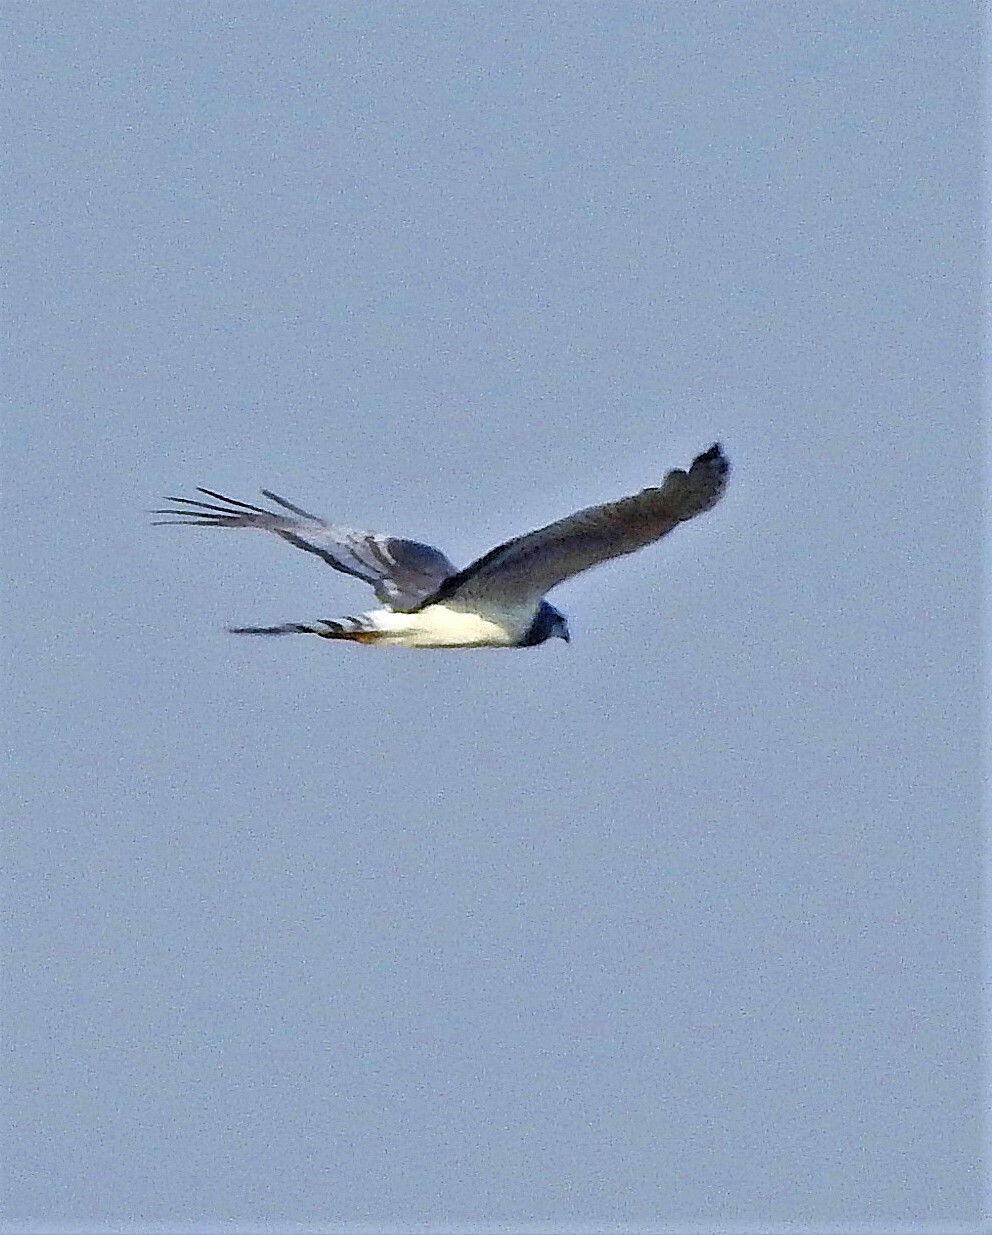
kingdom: Animalia
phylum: Chordata
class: Aves
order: Accipitriformes
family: Accipitridae
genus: Circus
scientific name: Circus buffoni
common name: Long-winged harrier
